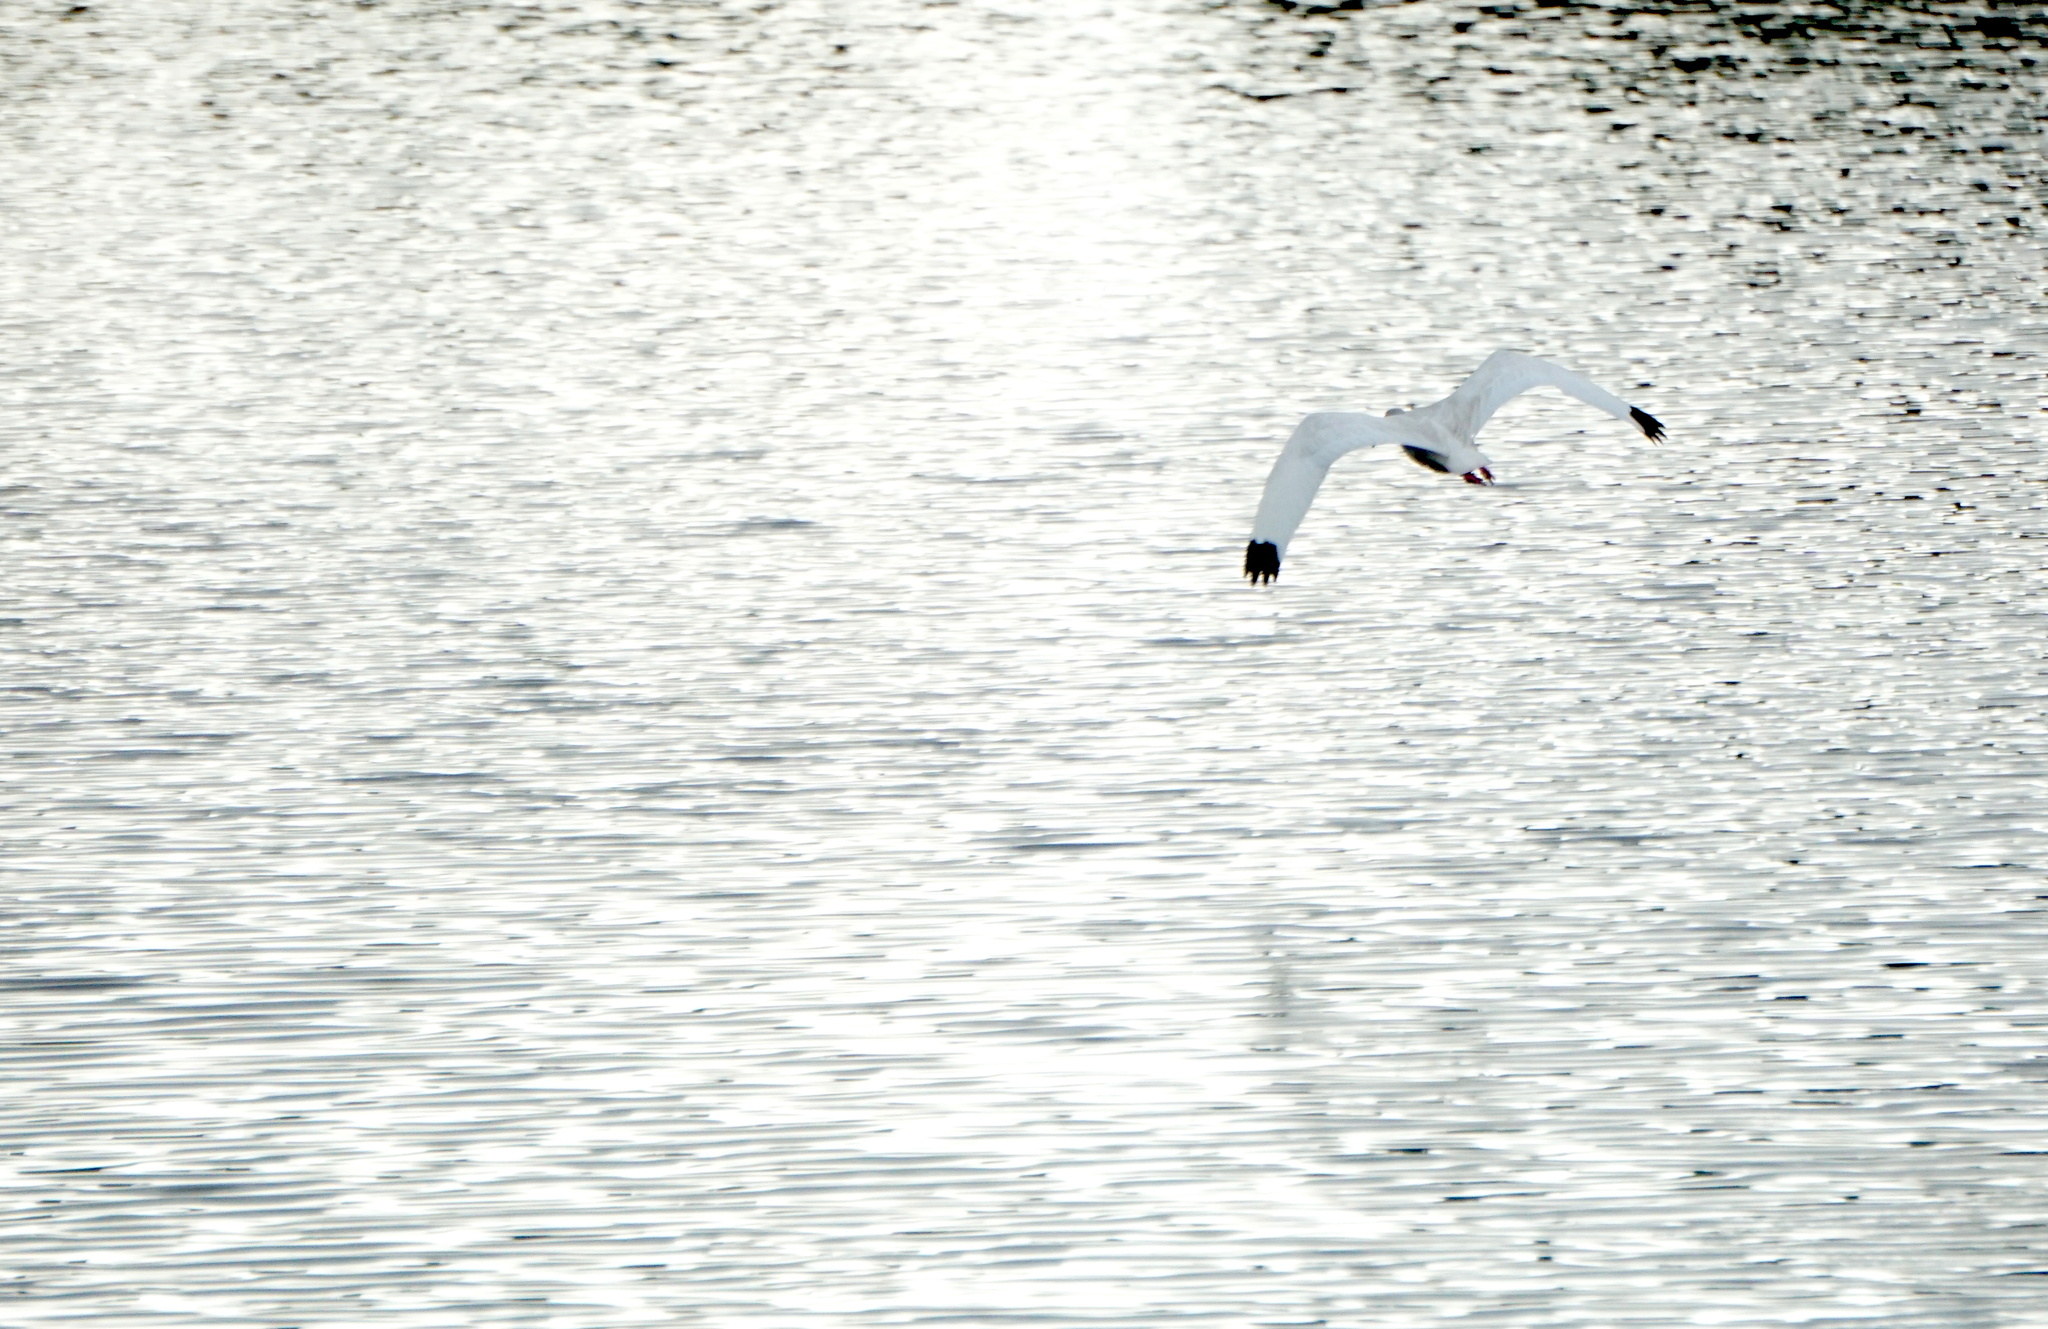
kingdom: Animalia
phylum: Chordata
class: Aves
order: Pelecaniformes
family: Threskiornithidae
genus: Eudocimus
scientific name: Eudocimus albus
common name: White ibis
